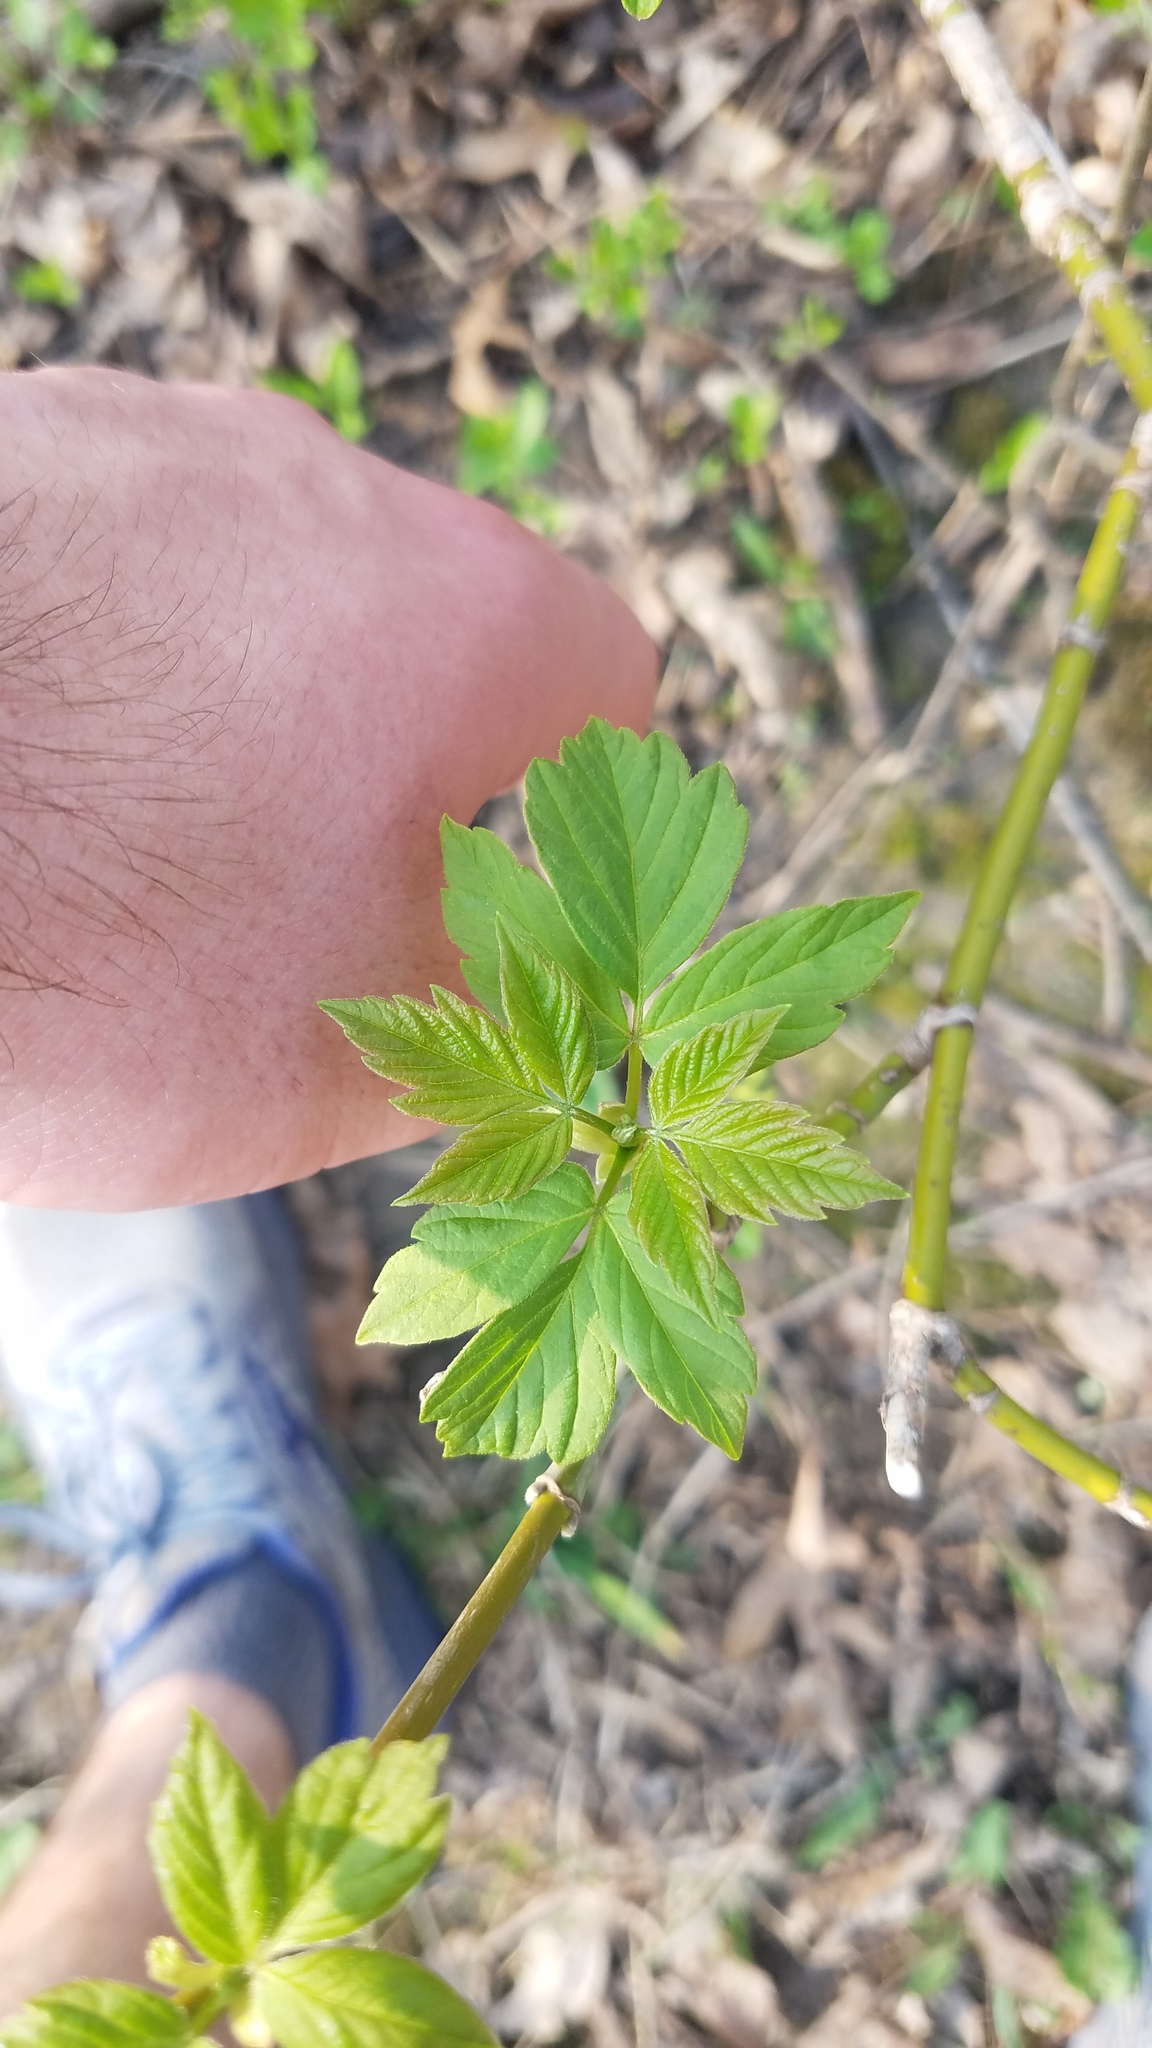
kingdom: Plantae
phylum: Tracheophyta
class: Magnoliopsida
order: Sapindales
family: Sapindaceae
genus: Acer
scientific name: Acer negundo
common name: Ashleaf maple
